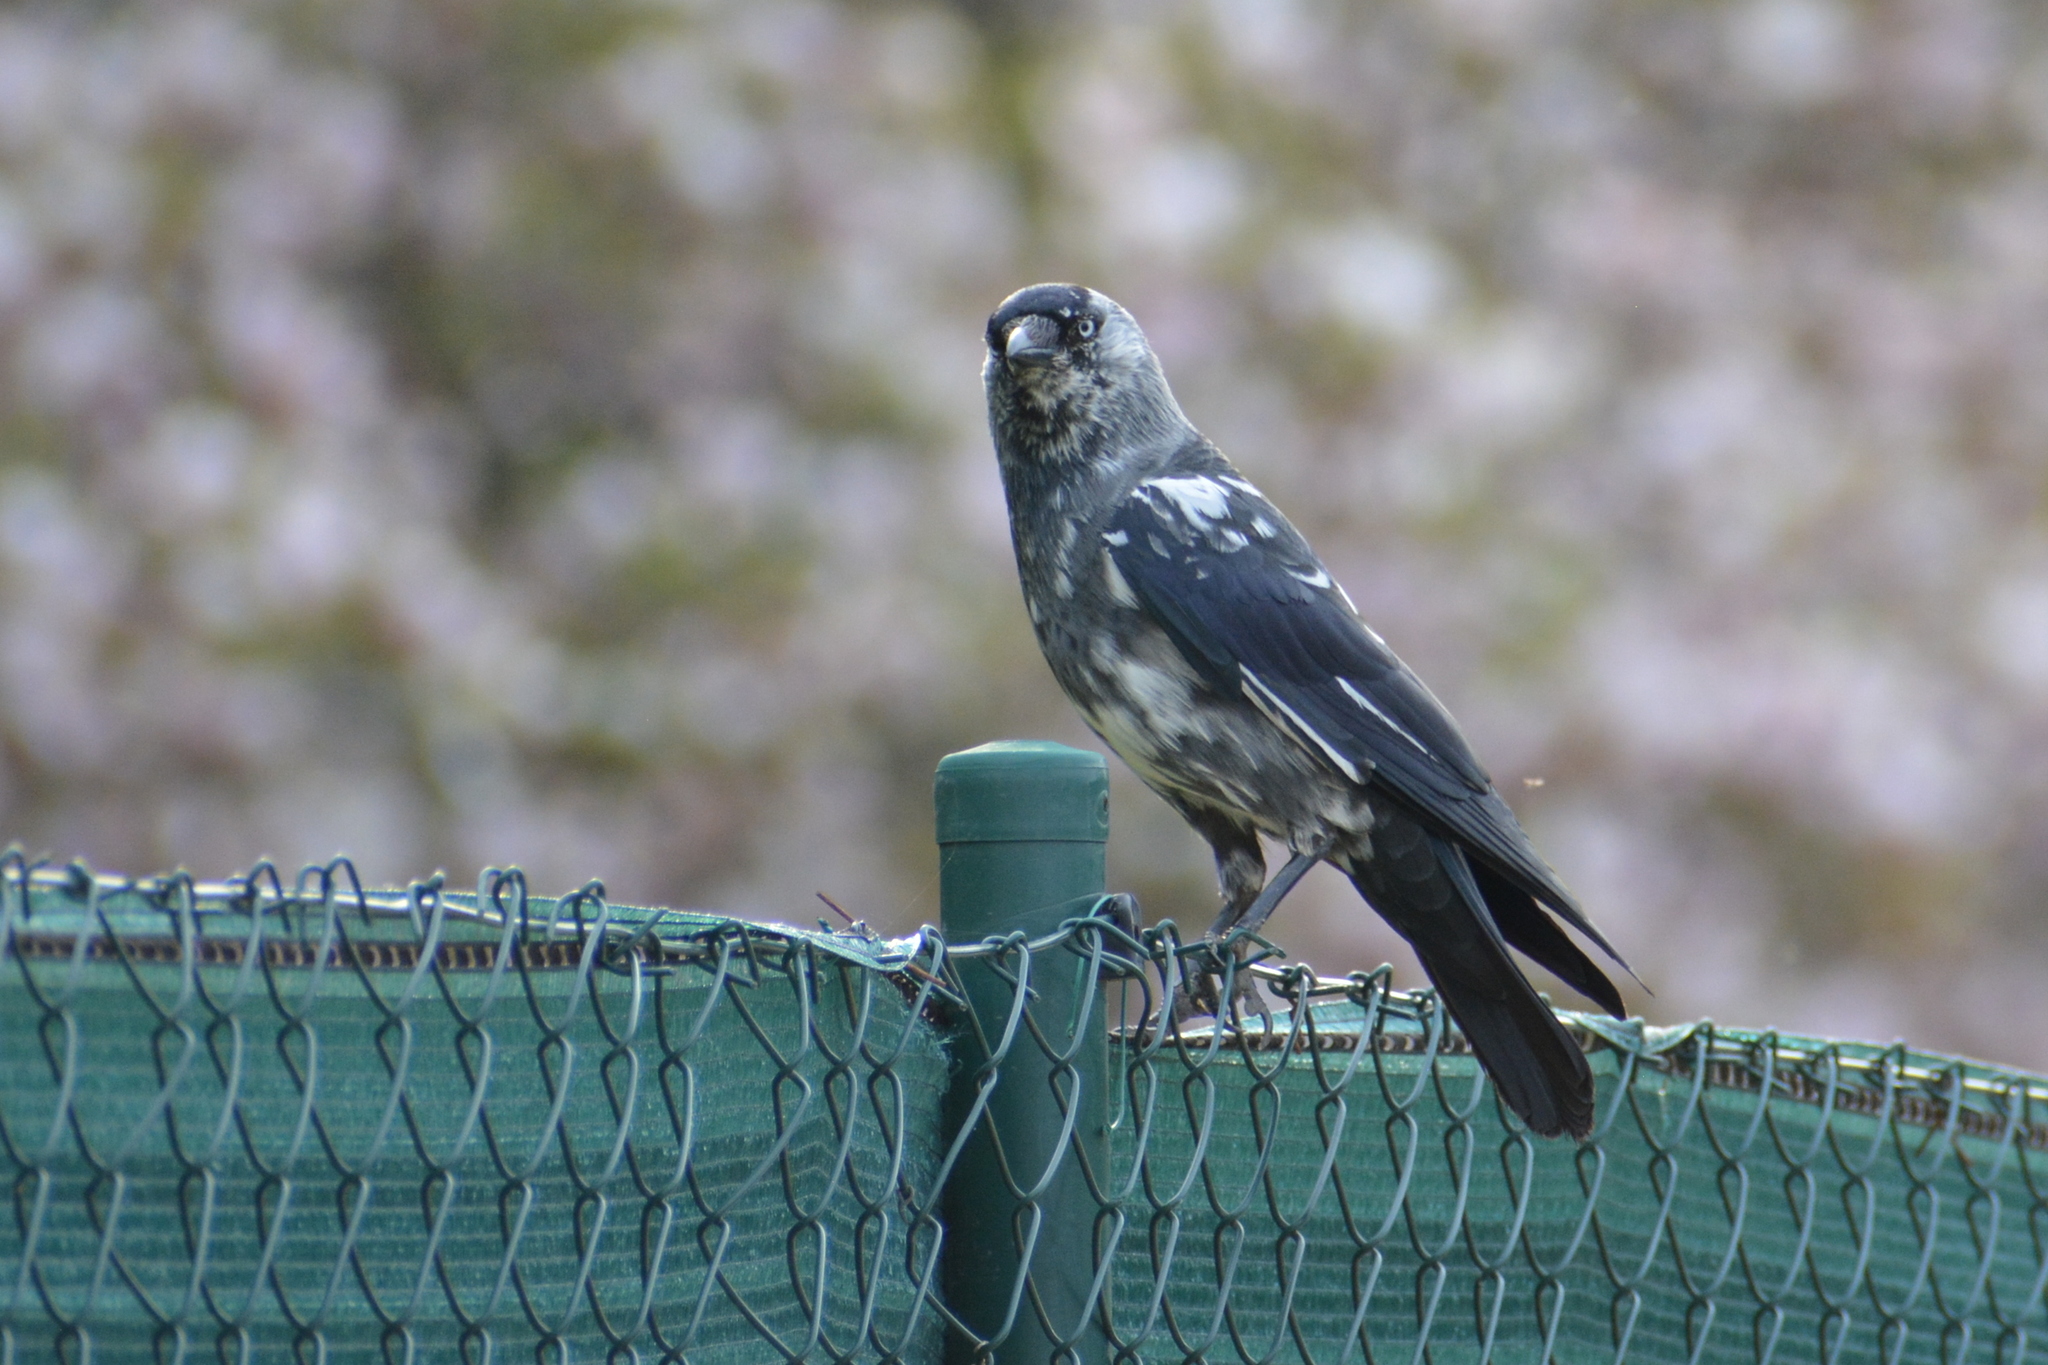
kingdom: Animalia
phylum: Chordata
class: Aves
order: Passeriformes
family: Corvidae
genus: Coloeus
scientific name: Coloeus monedula
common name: Western jackdaw
